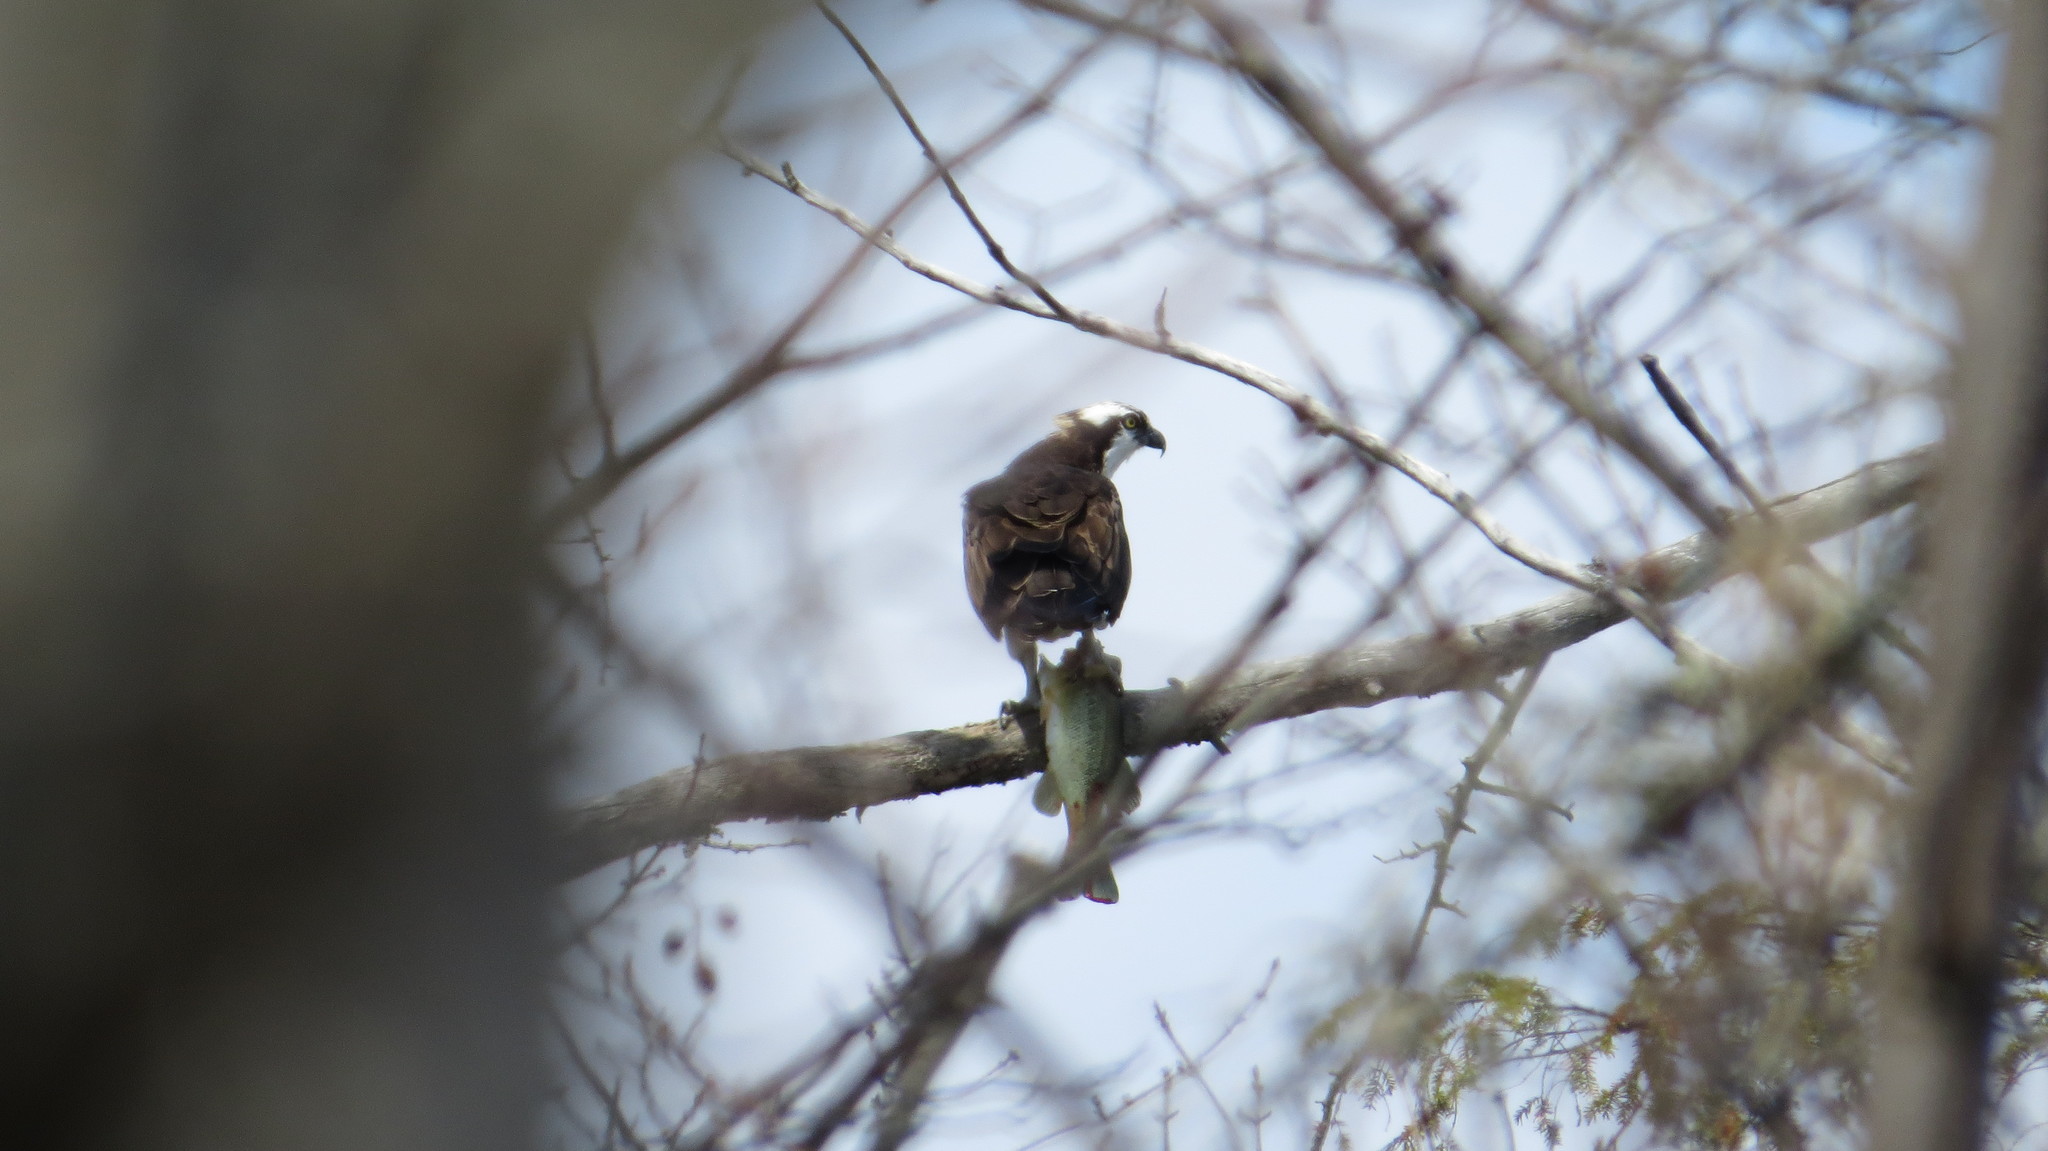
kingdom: Animalia
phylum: Chordata
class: Aves
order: Accipitriformes
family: Pandionidae
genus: Pandion
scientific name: Pandion haliaetus
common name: Osprey
